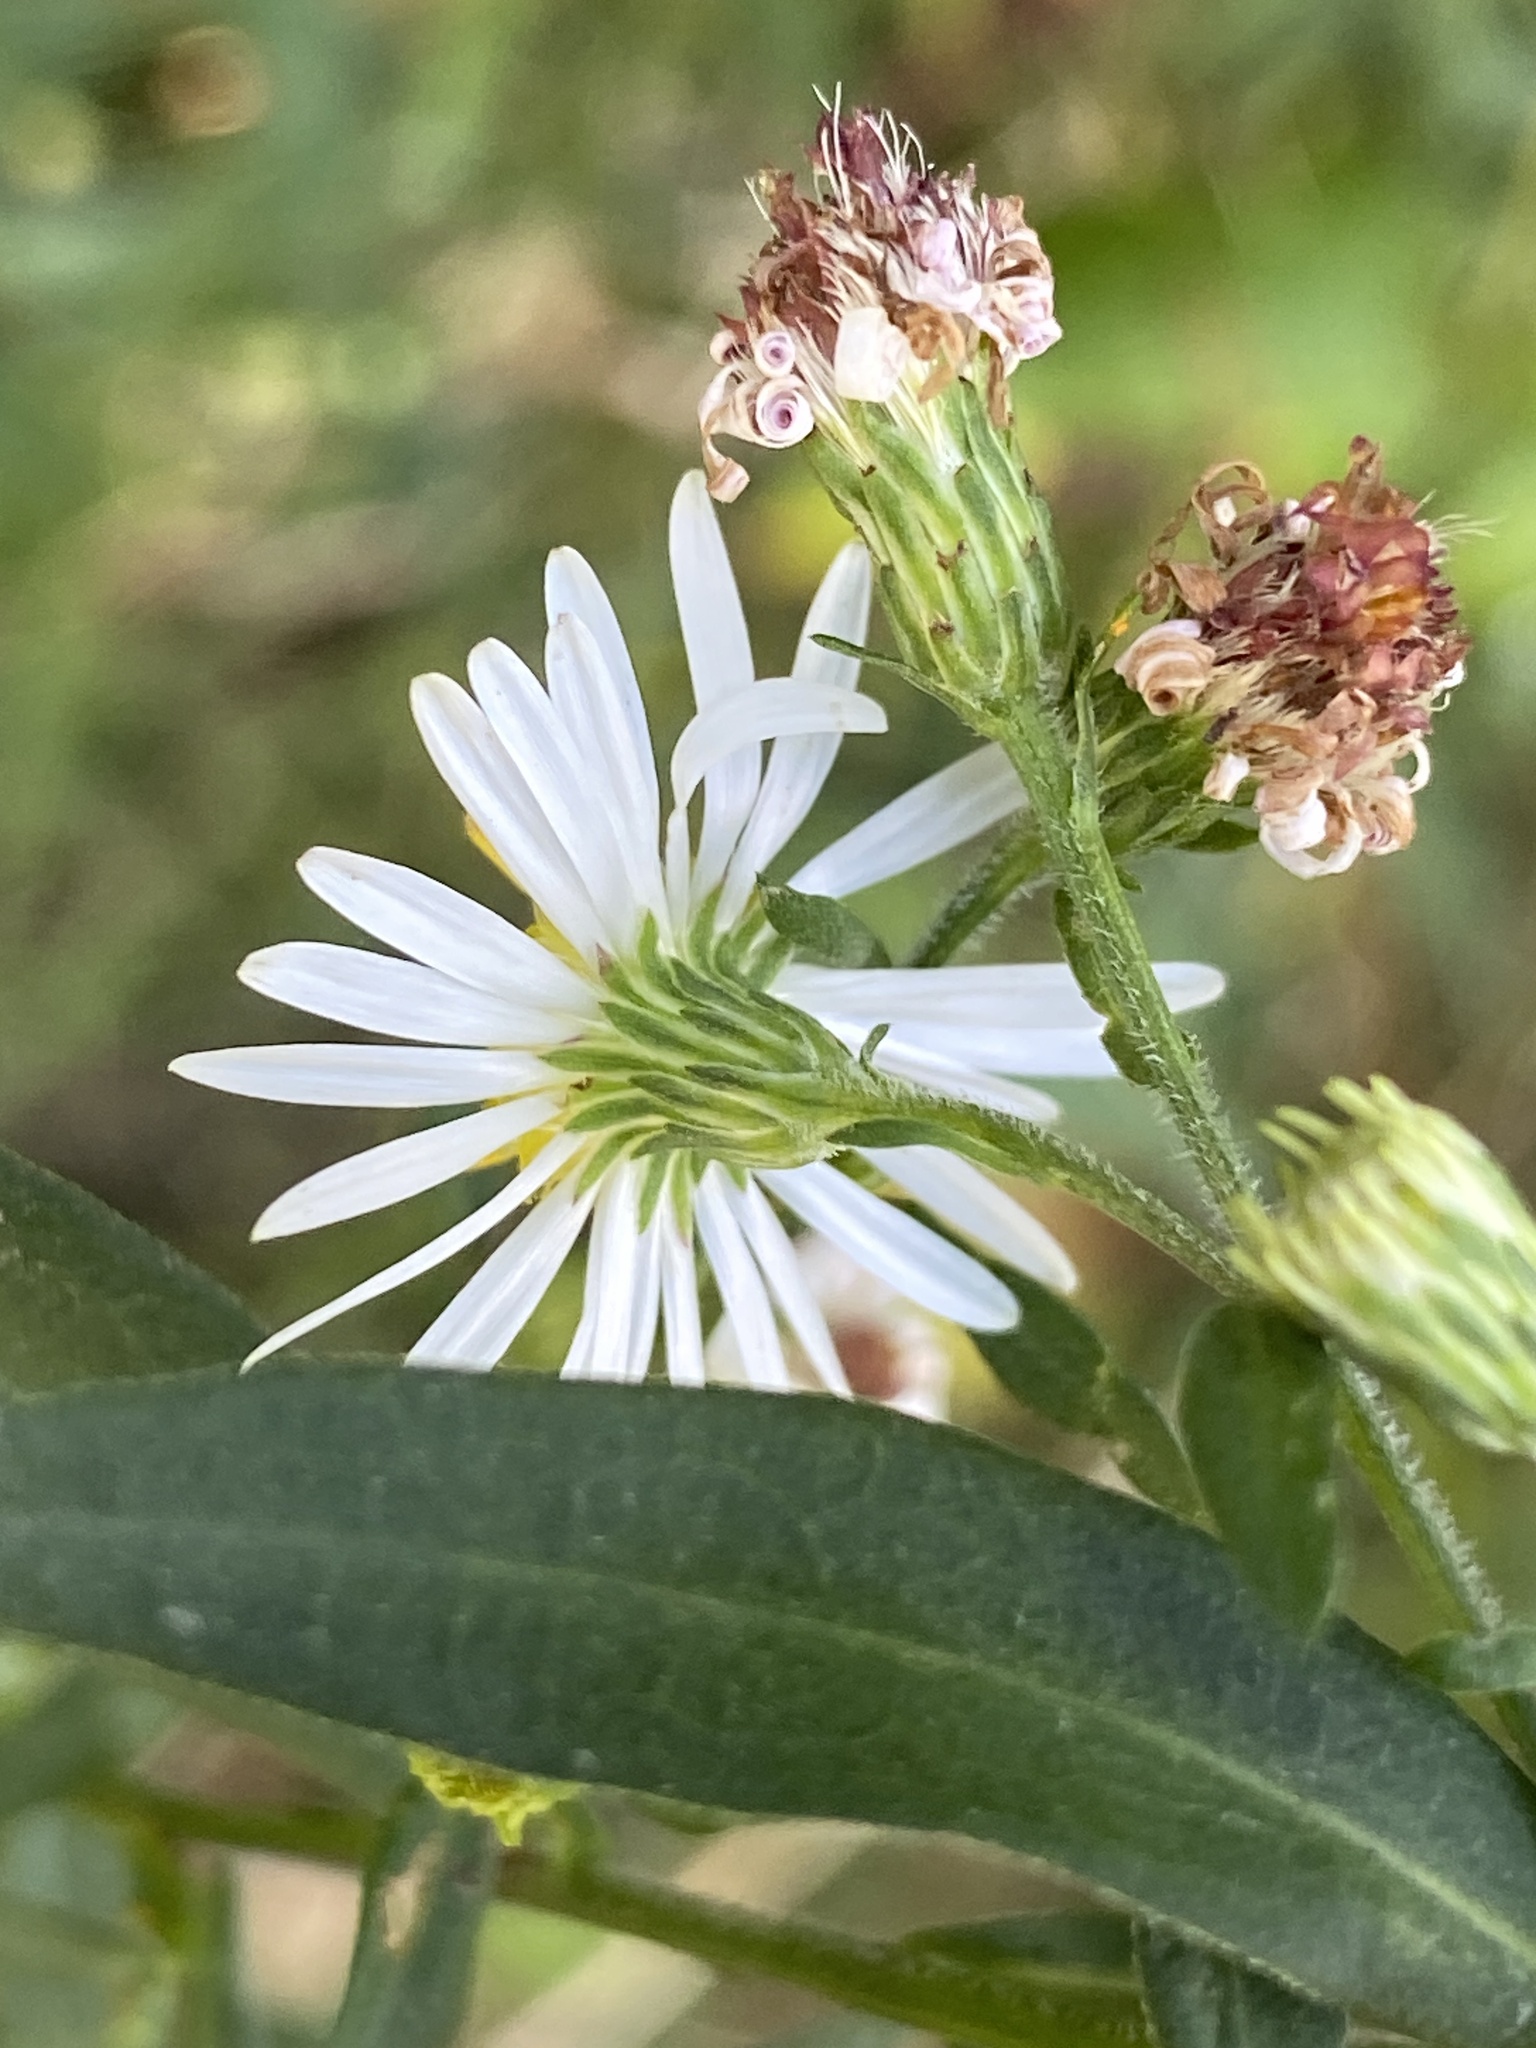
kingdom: Plantae
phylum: Tracheophyta
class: Magnoliopsida
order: Asterales
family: Asteraceae
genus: Symphyotrichum
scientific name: Symphyotrichum lanceolatum
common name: Panicled aster
